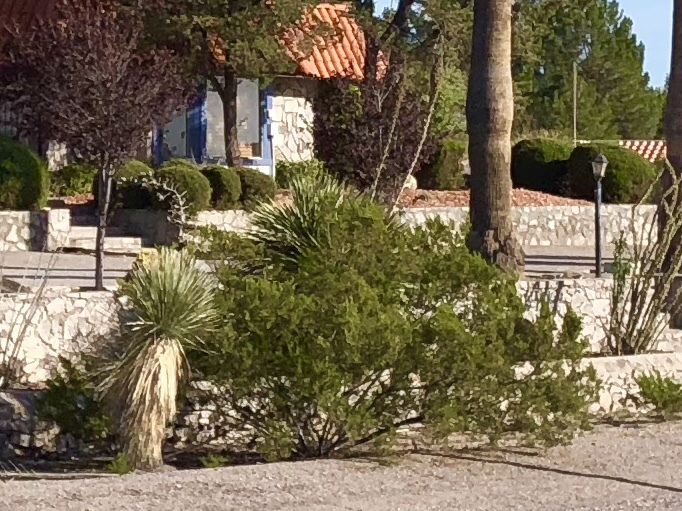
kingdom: Plantae
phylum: Tracheophyta
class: Magnoliopsida
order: Zygophyllales
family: Zygophyllaceae
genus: Larrea
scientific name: Larrea tridentata
